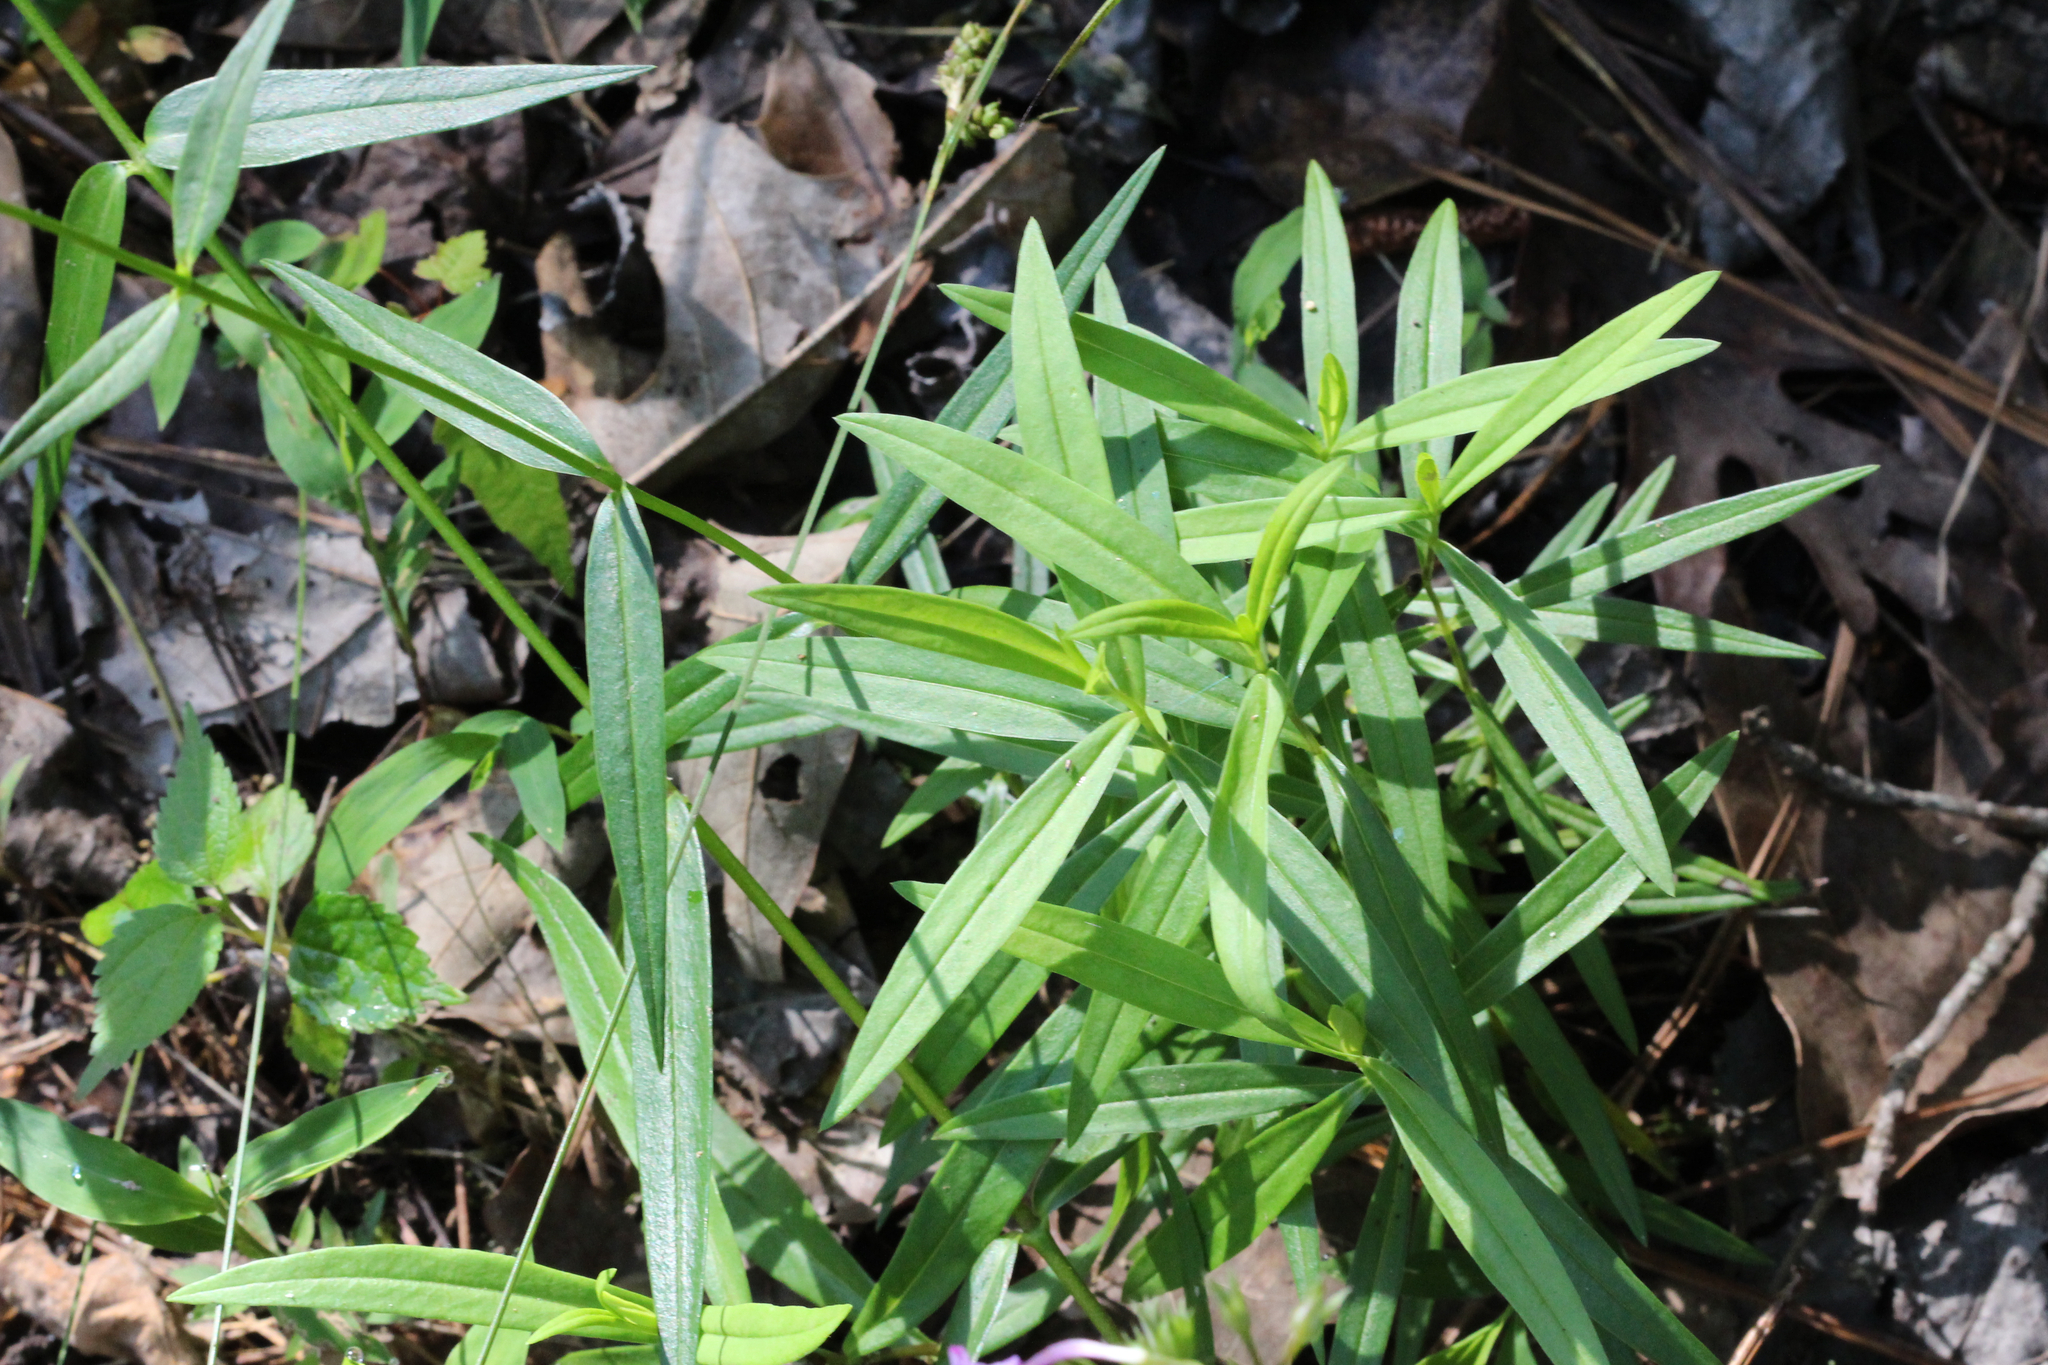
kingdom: Plantae
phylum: Tracheophyta
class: Magnoliopsida
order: Ericales
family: Polemoniaceae
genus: Phlox
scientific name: Phlox carolina
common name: Thick-leaf phlox
